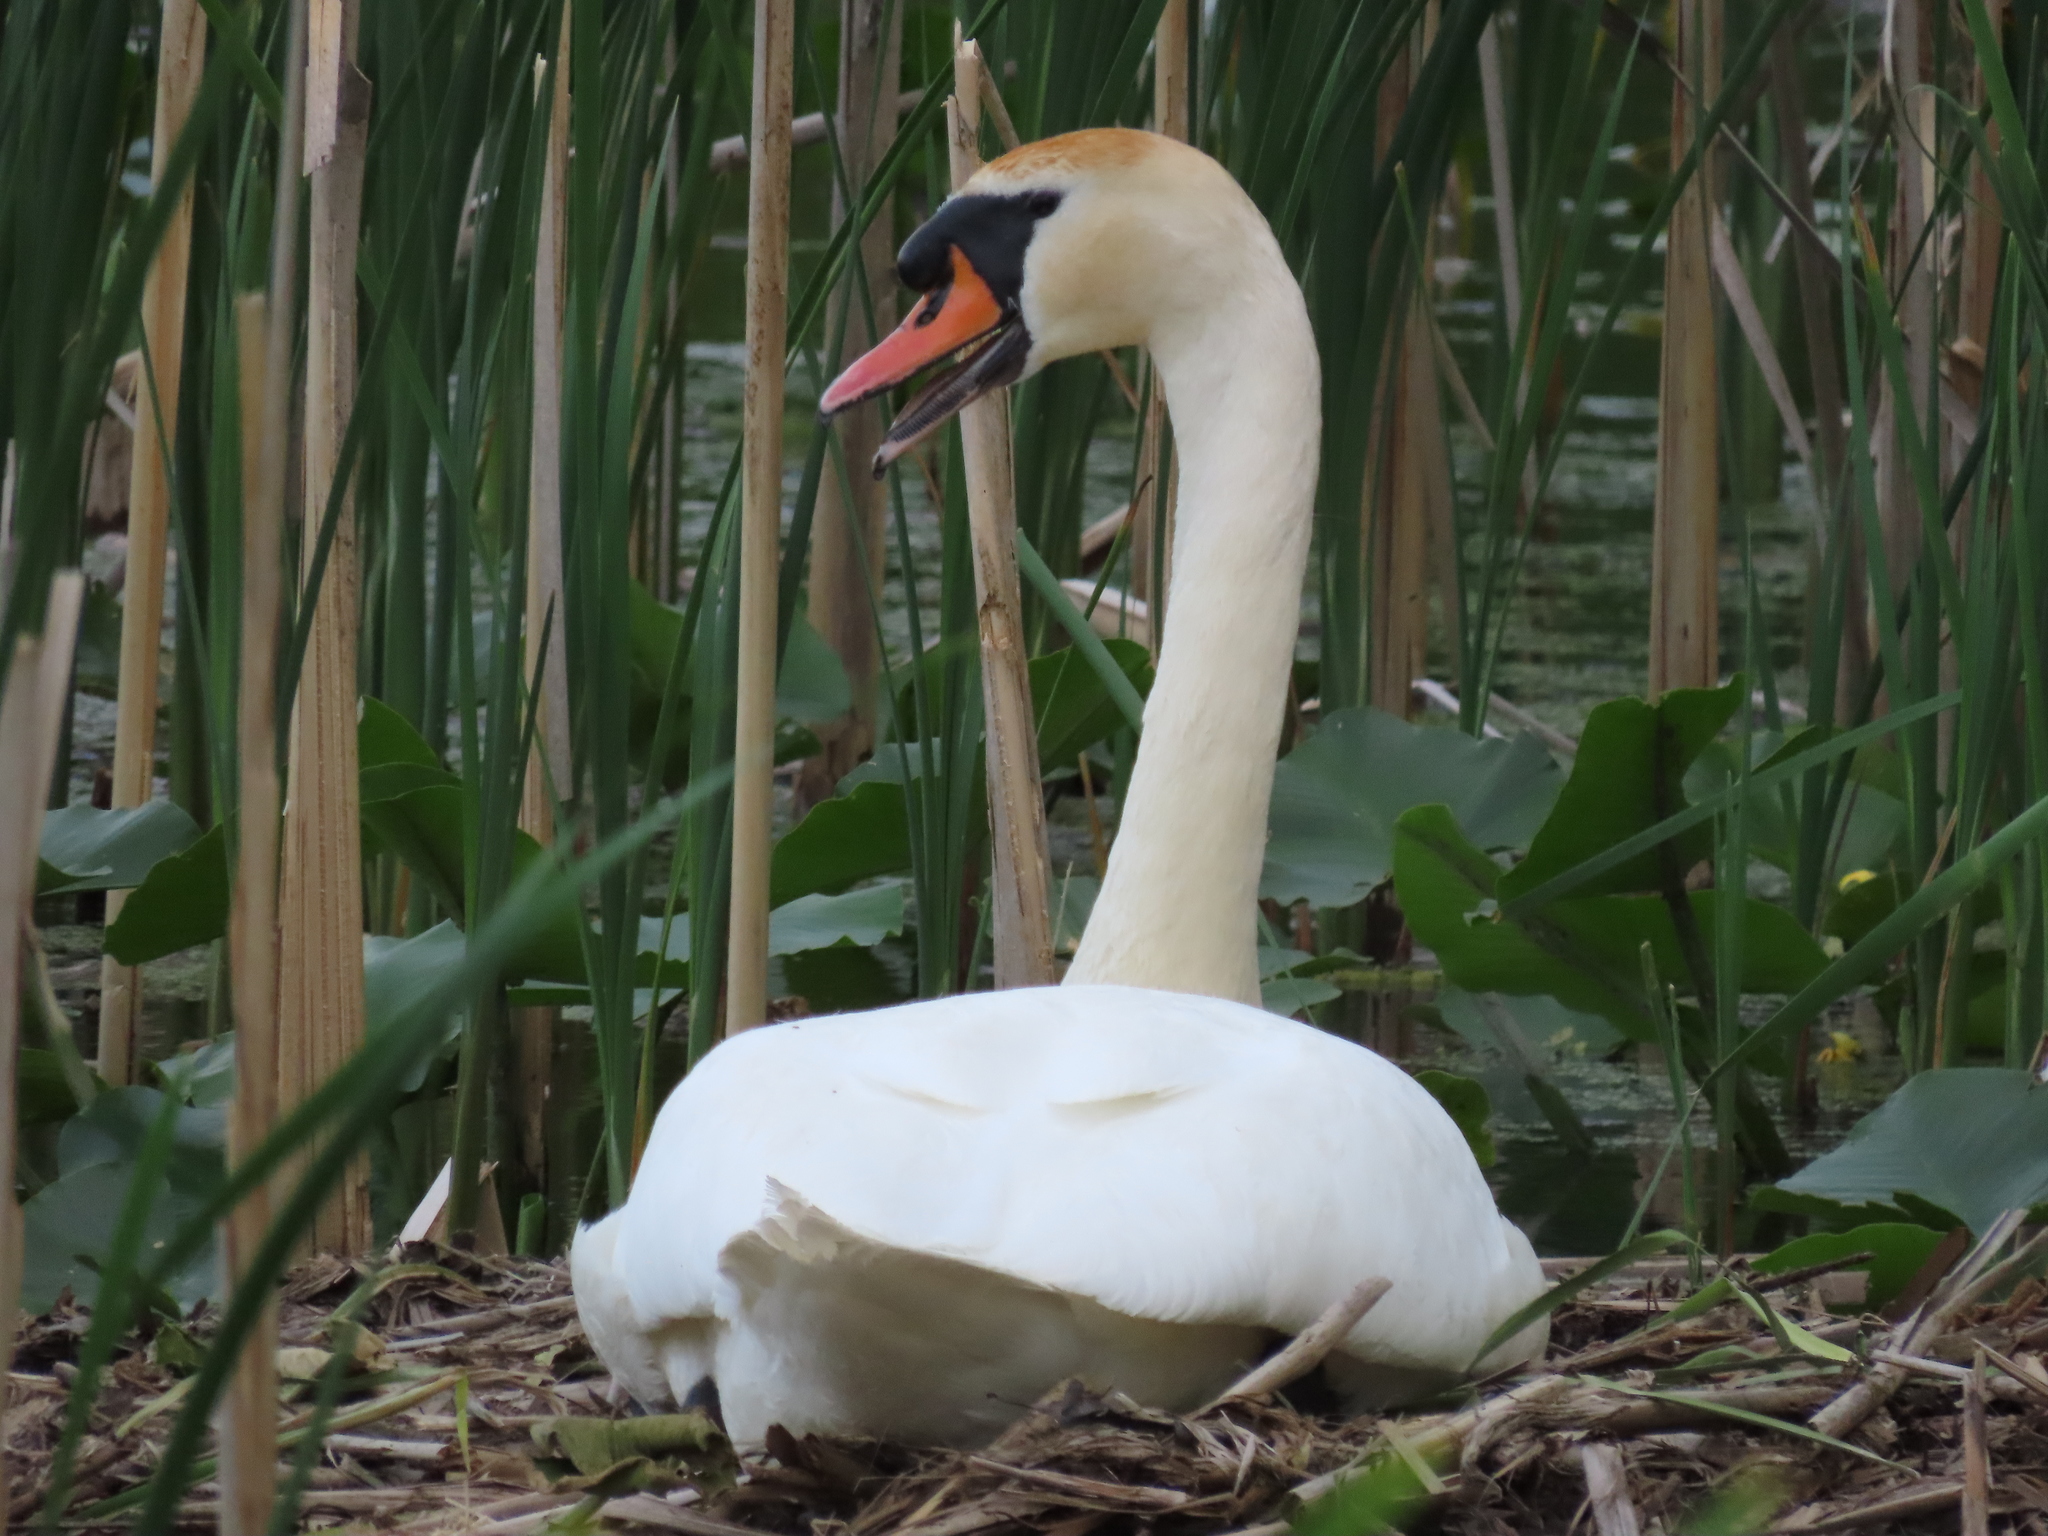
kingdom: Animalia
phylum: Chordata
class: Aves
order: Anseriformes
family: Anatidae
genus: Cygnus
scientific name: Cygnus olor
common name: Mute swan
